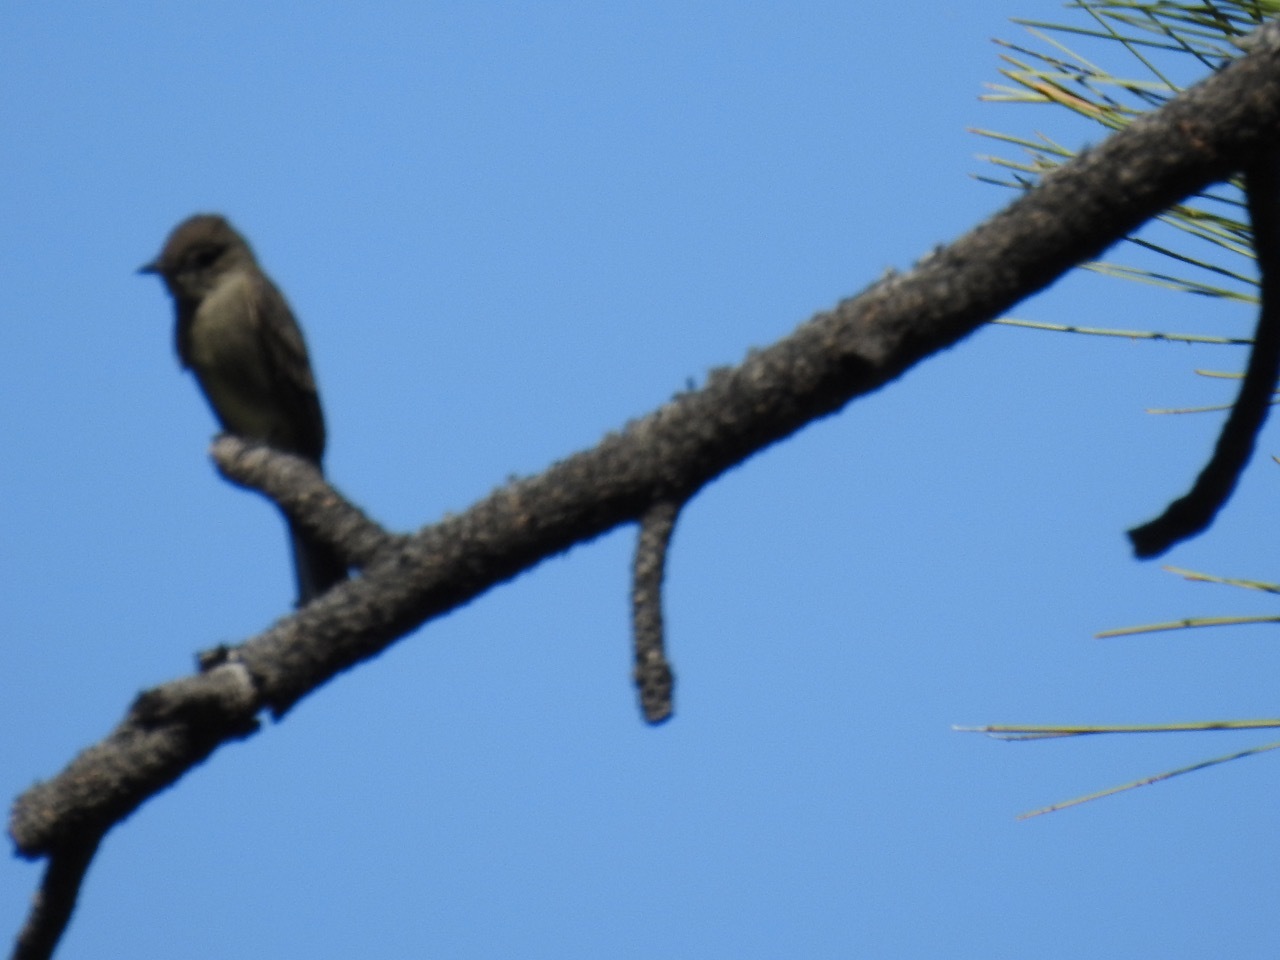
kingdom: Animalia
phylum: Chordata
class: Aves
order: Passeriformes
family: Tyrannidae
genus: Contopus
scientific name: Contopus sordidulus
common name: Western wood-pewee
